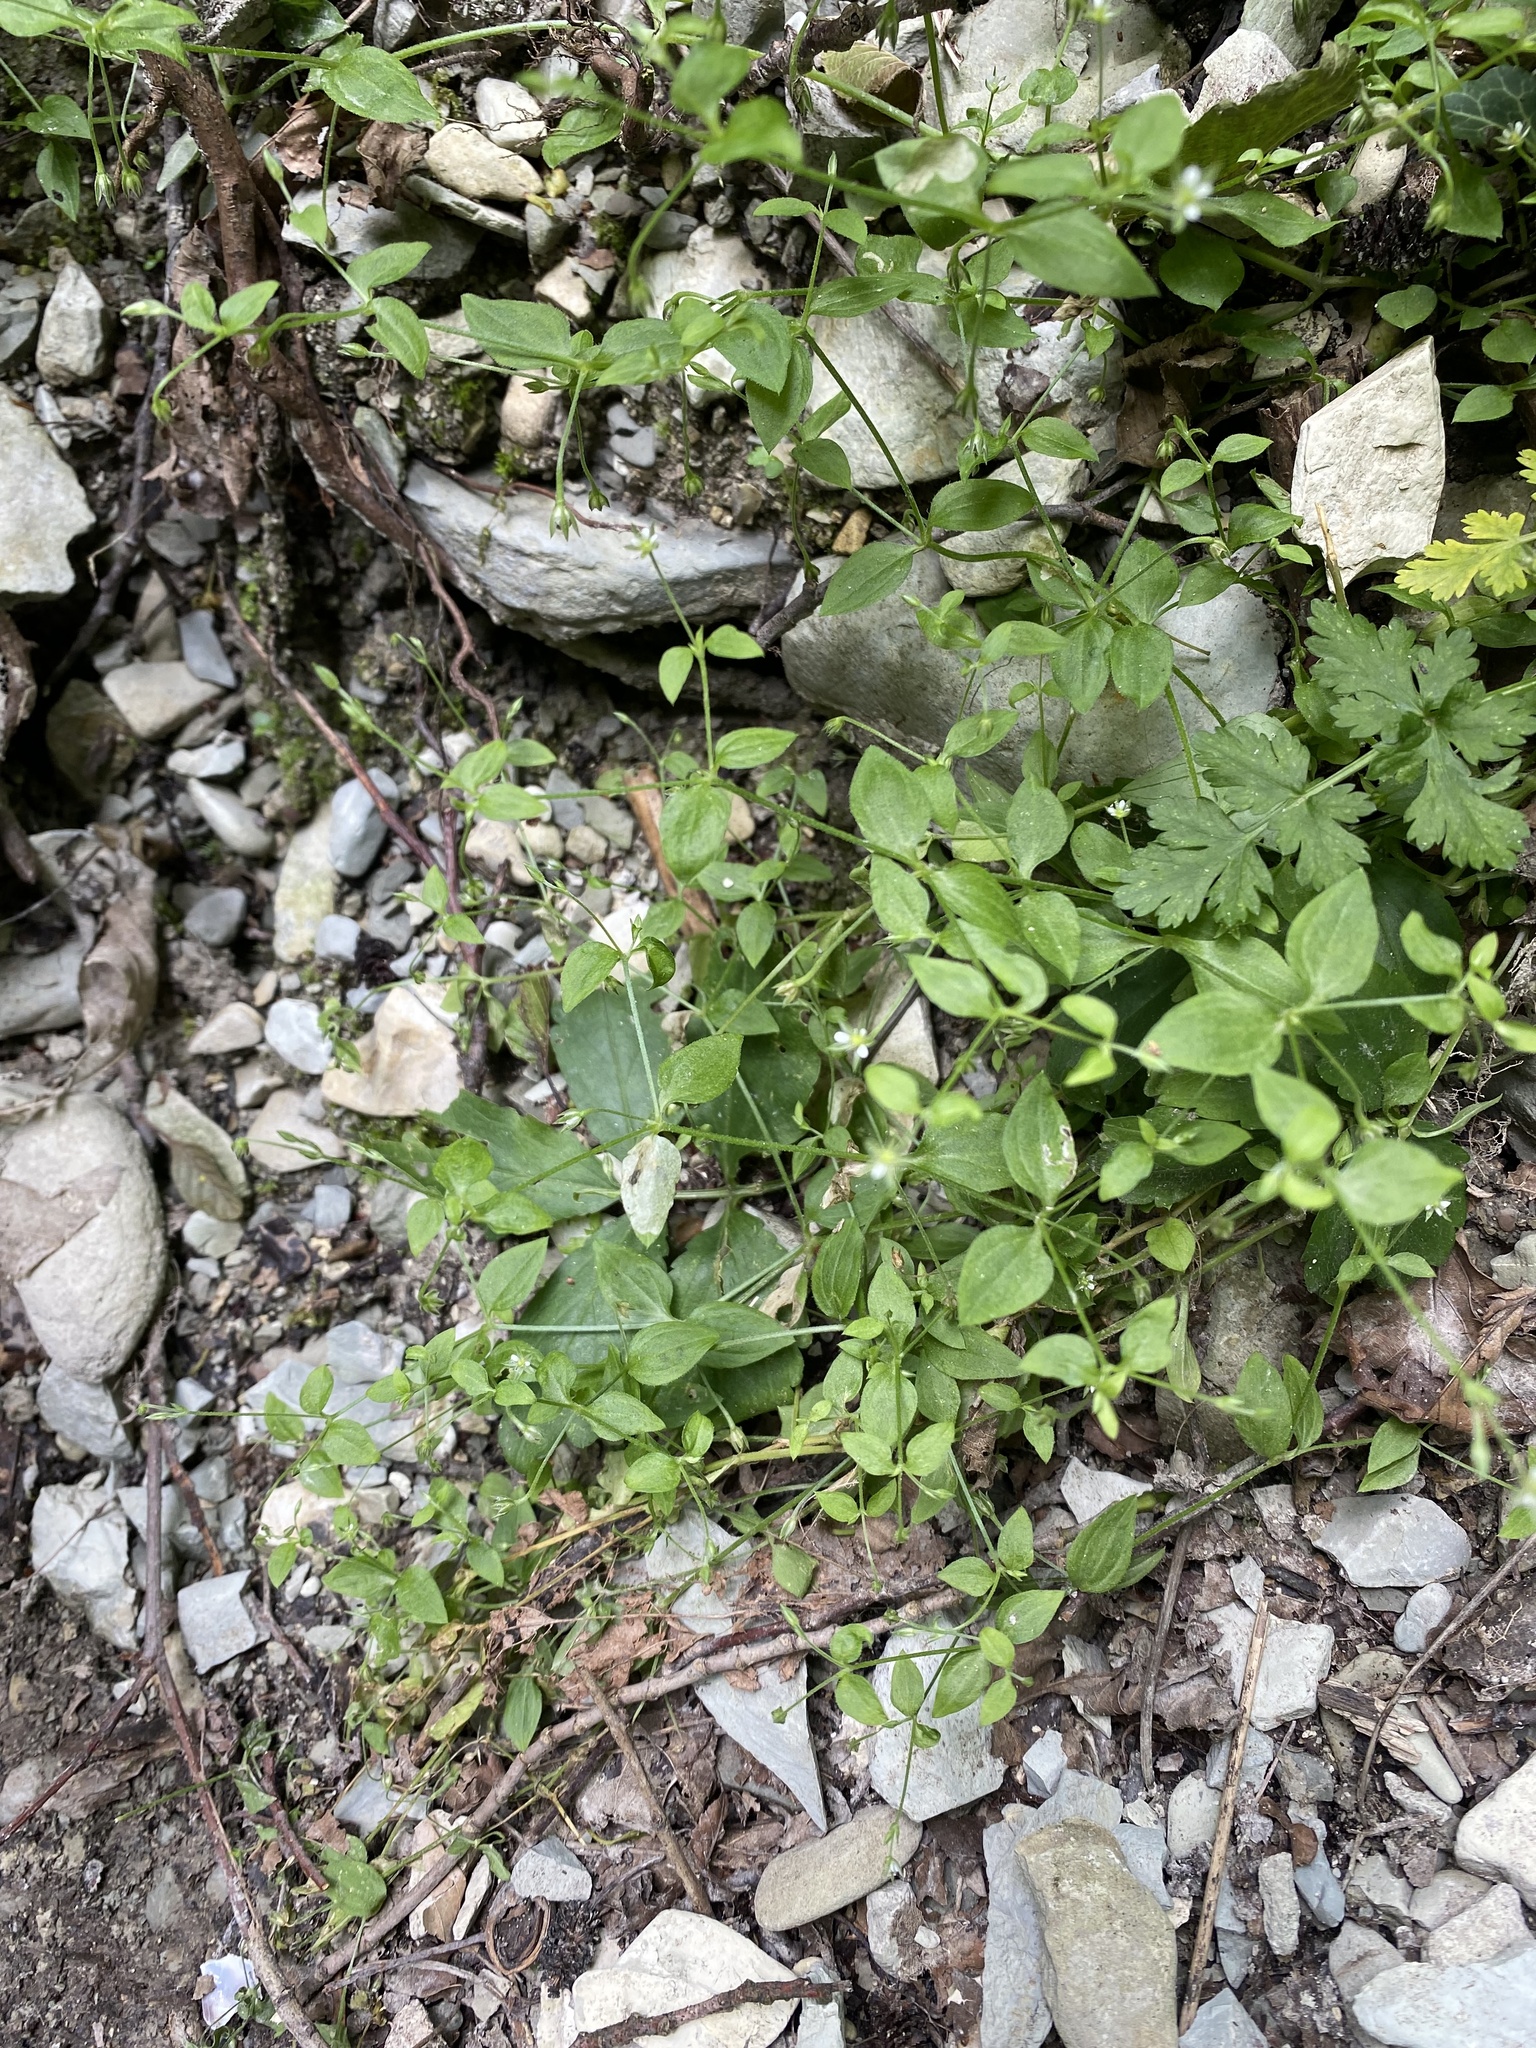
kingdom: Plantae
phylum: Tracheophyta
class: Magnoliopsida
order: Caryophyllales
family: Caryophyllaceae
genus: Moehringia
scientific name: Moehringia trinervia
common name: Three-nerved sandwort
